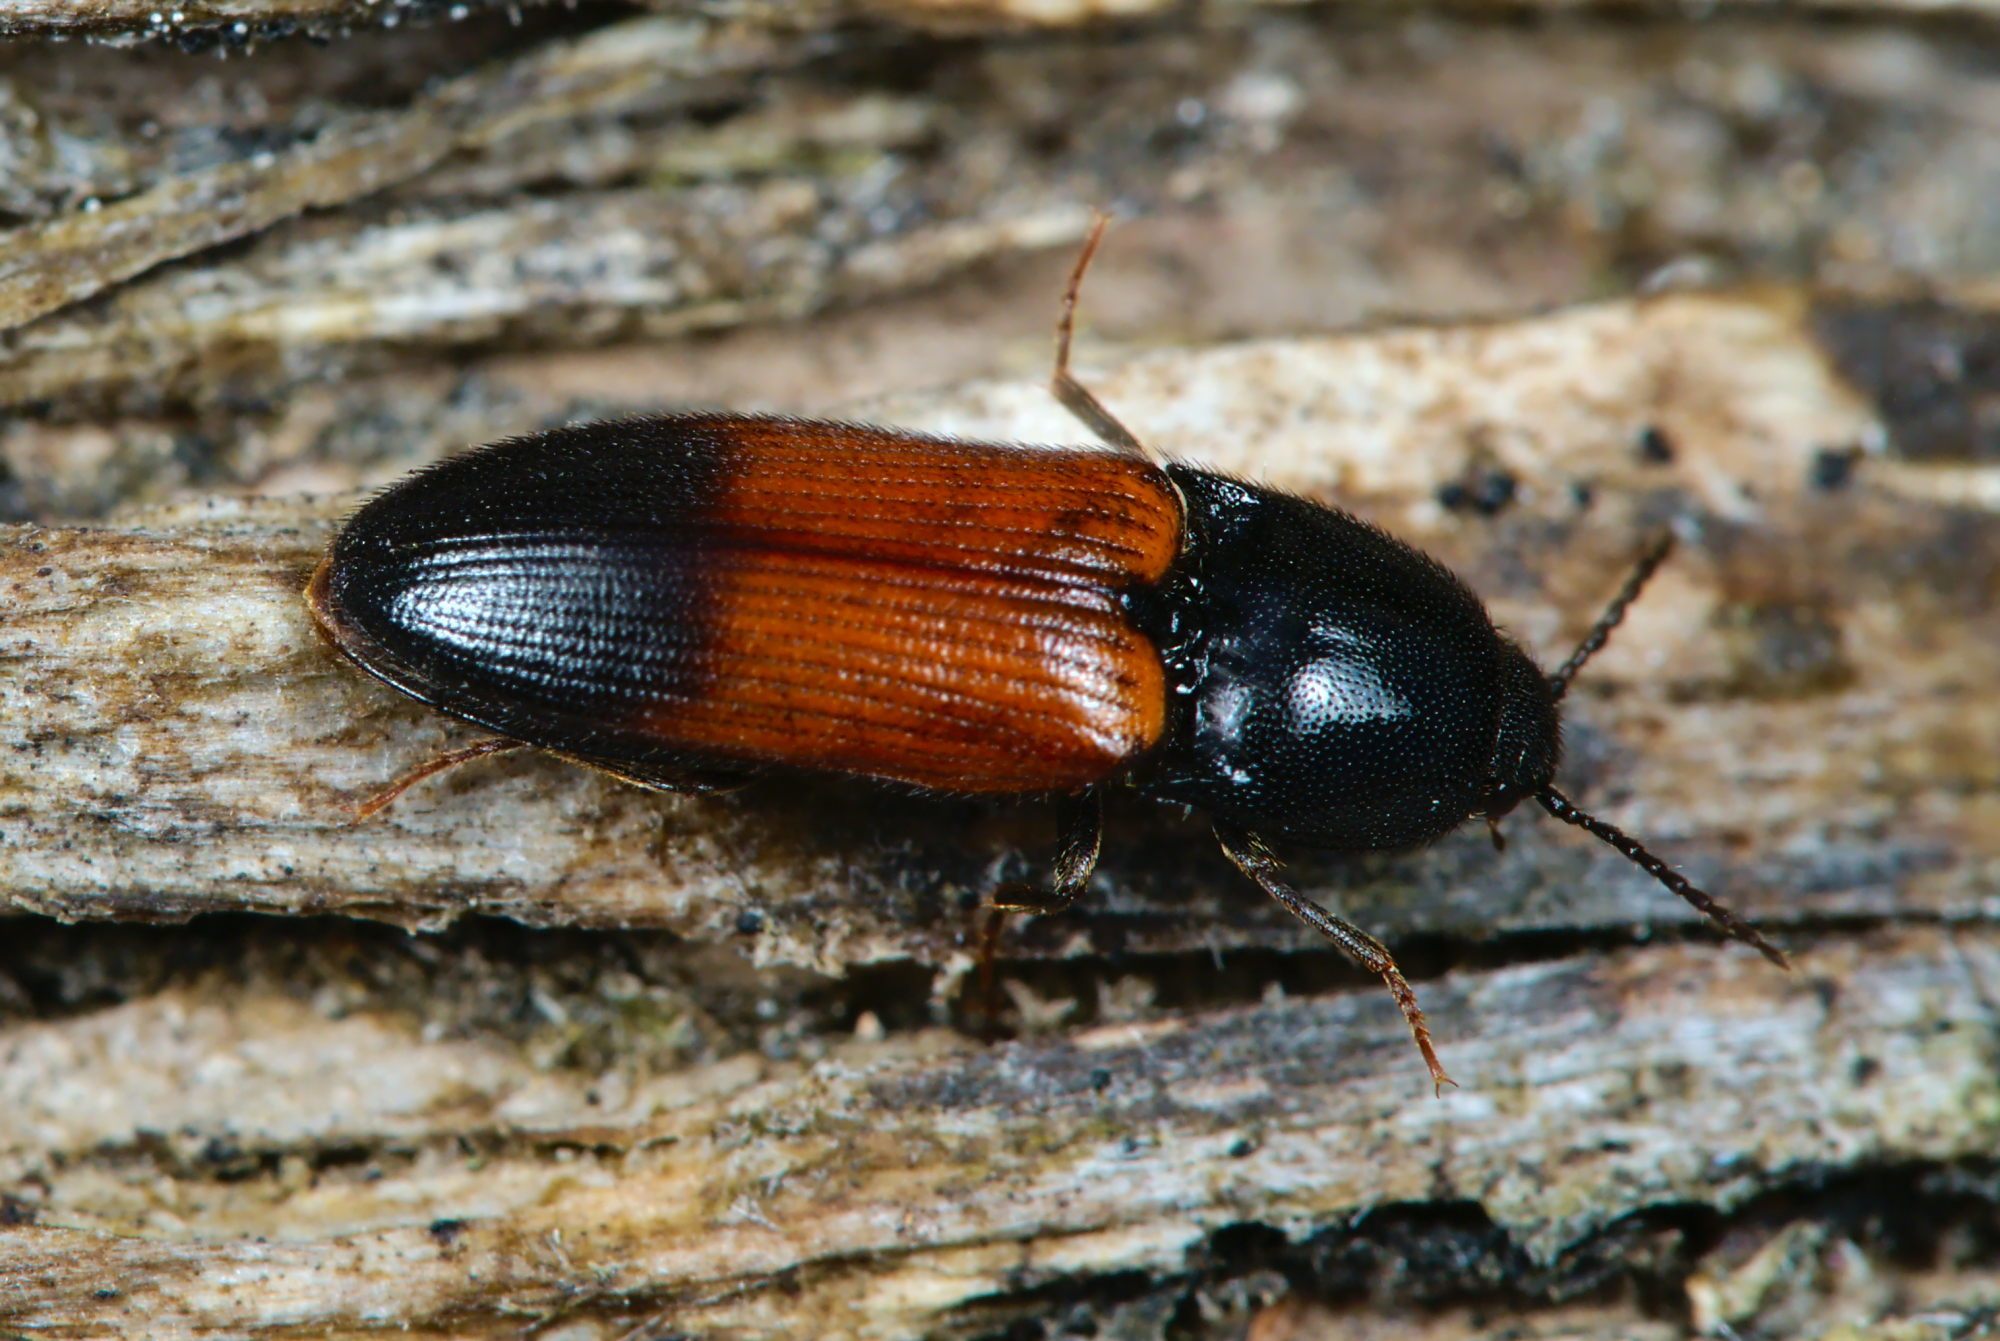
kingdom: Animalia
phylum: Arthropoda
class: Insecta
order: Coleoptera
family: Elateridae
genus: Ampedus
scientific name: Ampedus balteatus
